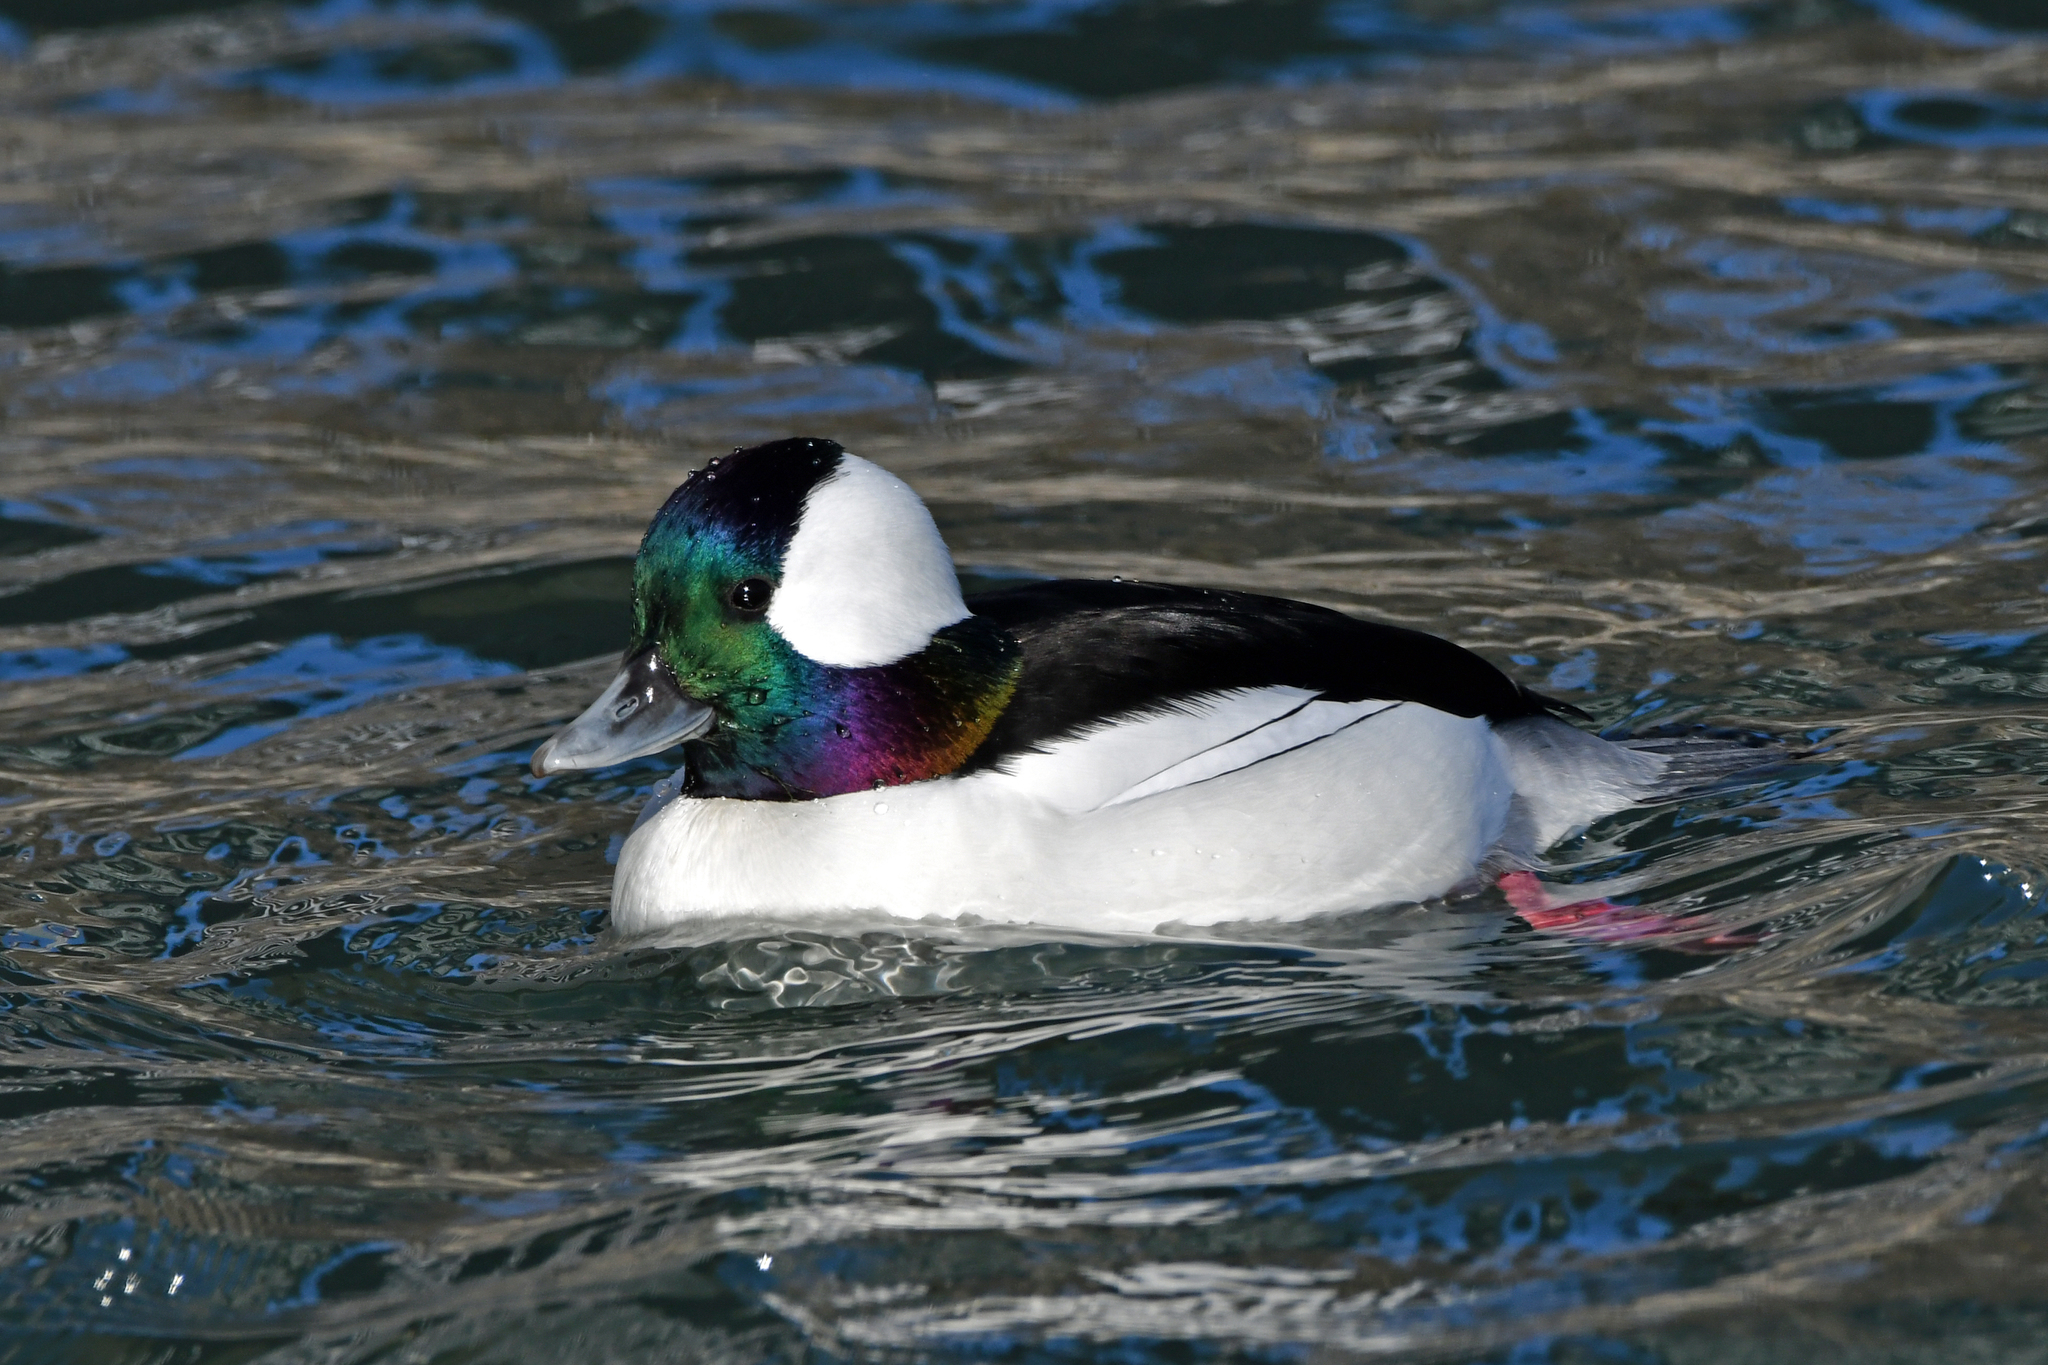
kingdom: Animalia
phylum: Chordata
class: Aves
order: Anseriformes
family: Anatidae
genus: Bucephala
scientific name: Bucephala albeola
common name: Bufflehead
